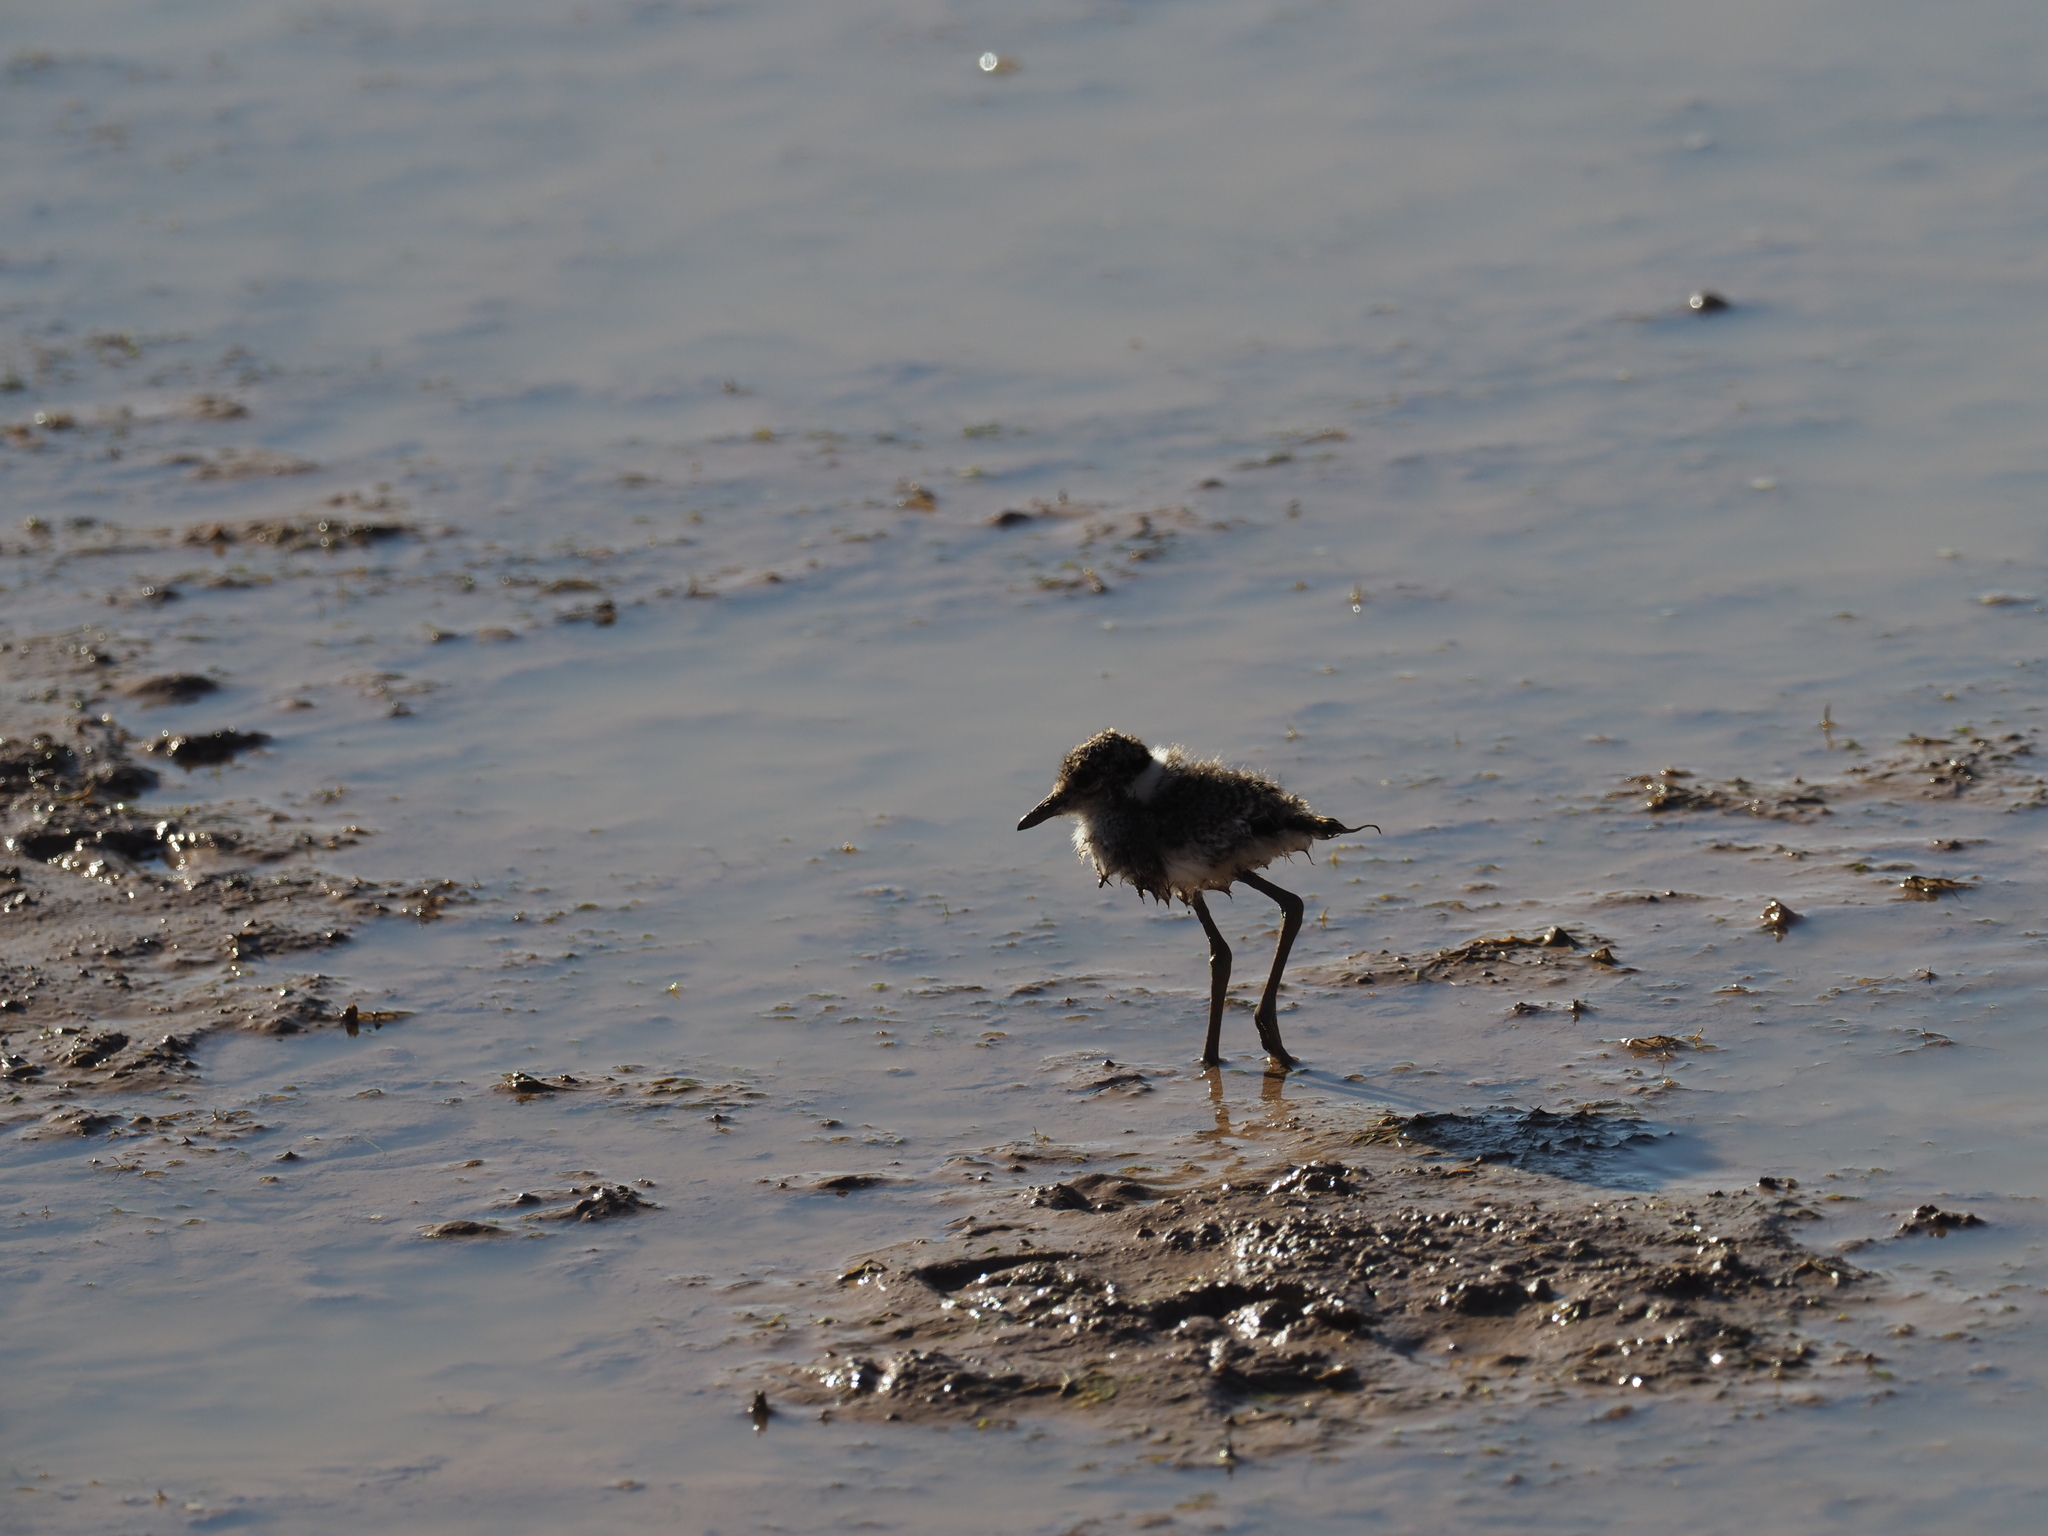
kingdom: Animalia
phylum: Chordata
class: Aves
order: Charadriiformes
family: Charadriidae
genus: Vanellus
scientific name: Vanellus armatus
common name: Blacksmith lapwing
